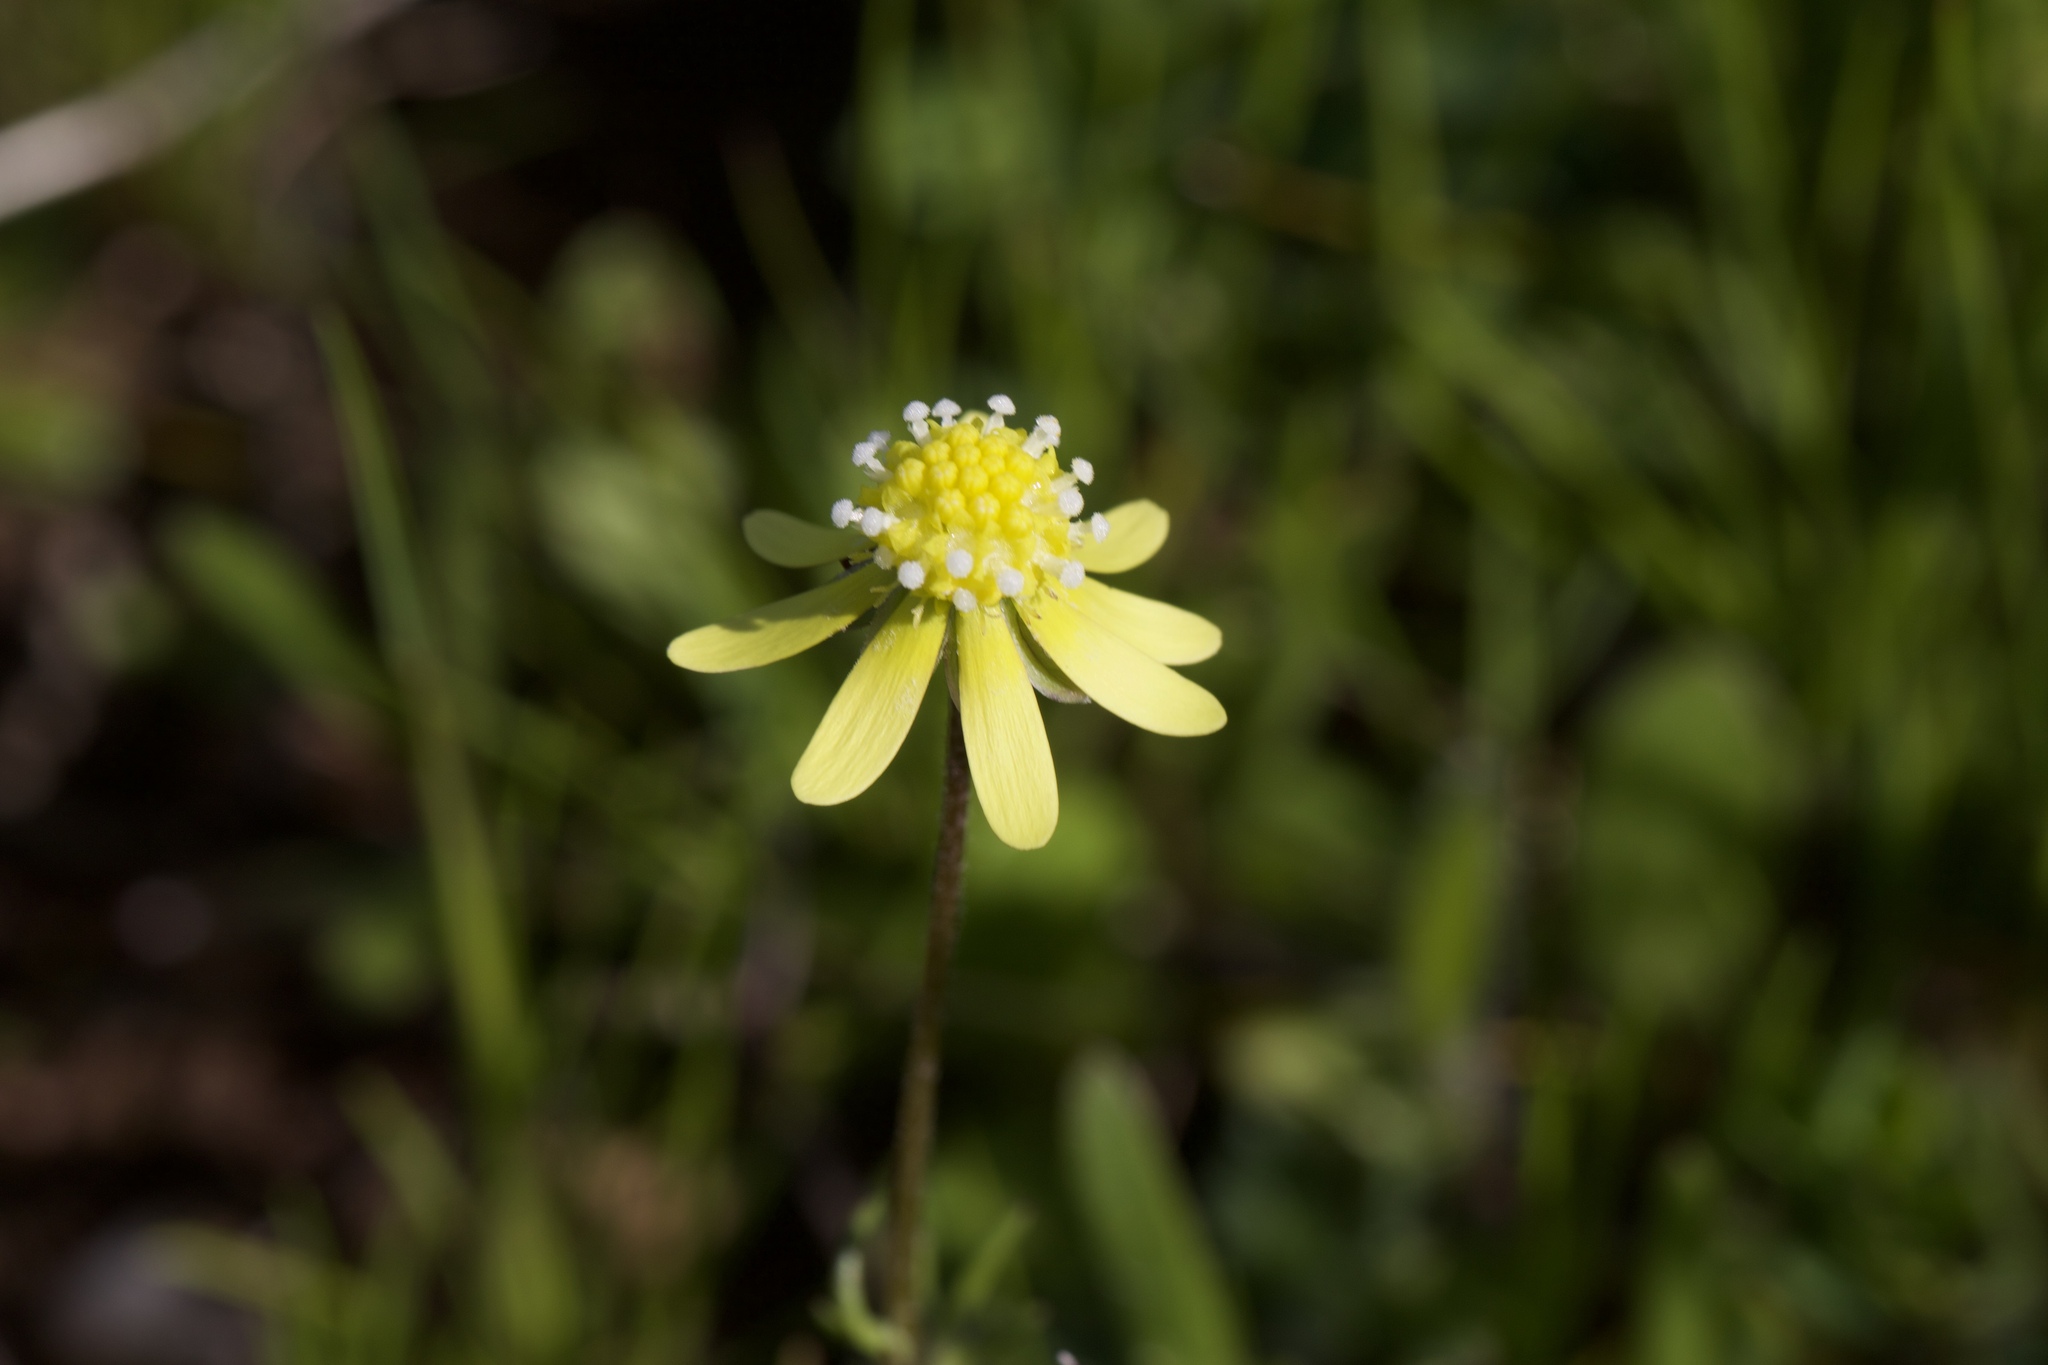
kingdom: Plantae
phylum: Tracheophyta
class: Magnoliopsida
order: Asterales
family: Asteraceae
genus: Blennosperma
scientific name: Blennosperma nanum
